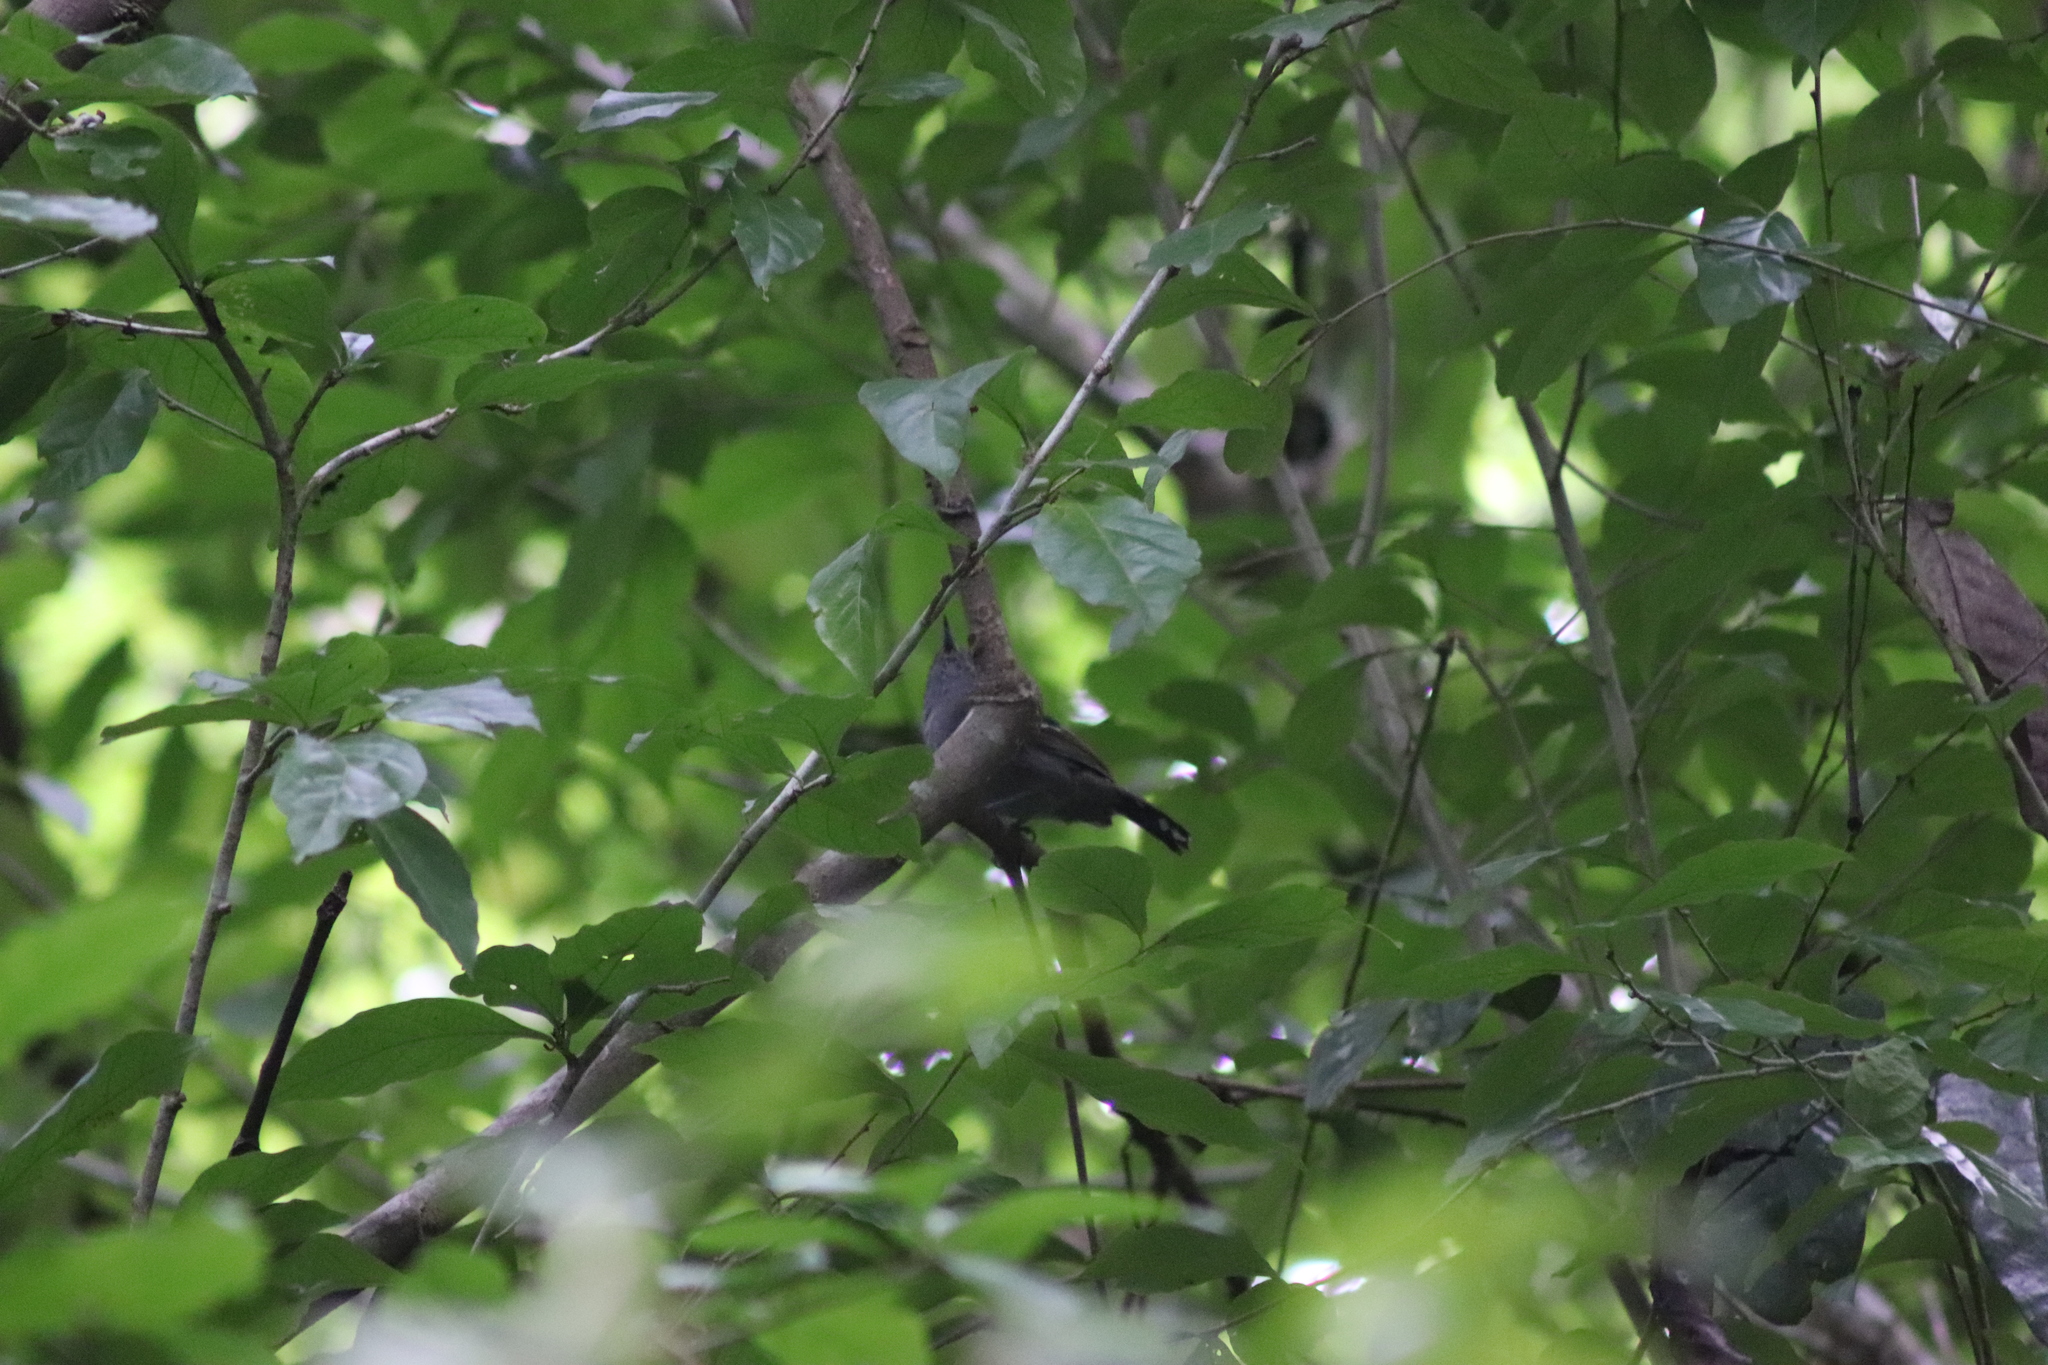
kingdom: Animalia
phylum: Chordata
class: Aves
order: Passeriformes
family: Thamnophilidae
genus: Thamnophilus
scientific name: Thamnophilus atrinucha
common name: Black-crowned antshrike
